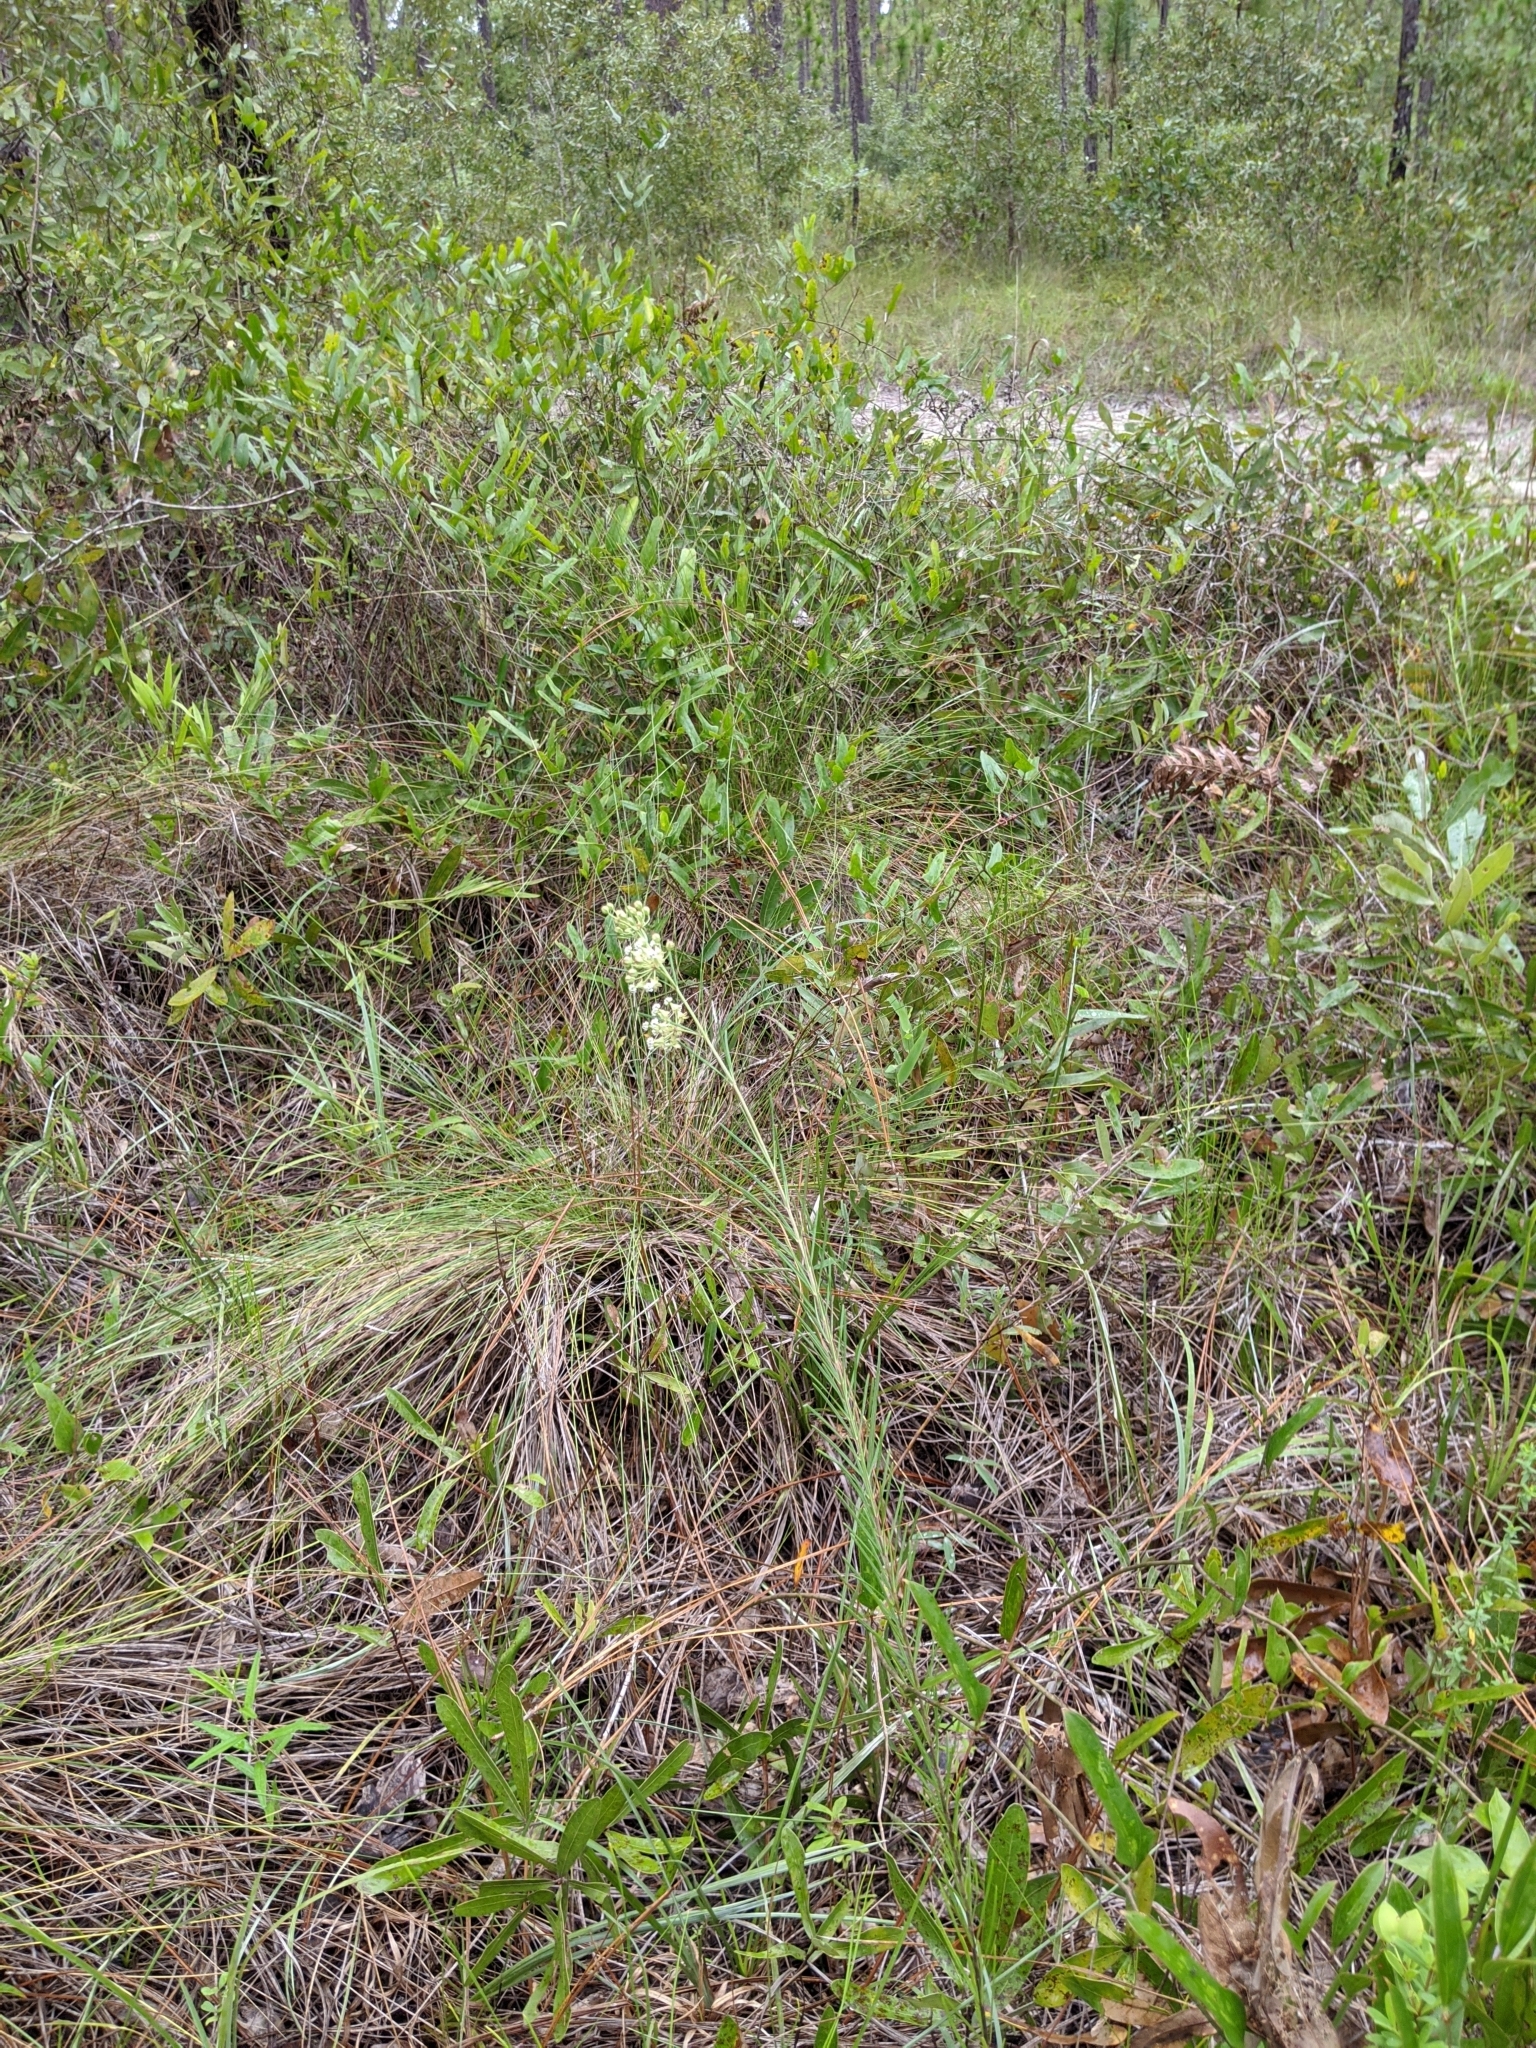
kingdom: Plantae
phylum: Tracheophyta
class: Magnoliopsida
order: Gentianales
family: Apocynaceae
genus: Asclepias
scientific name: Asclepias verticillata
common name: Eastern whorled milkweed
